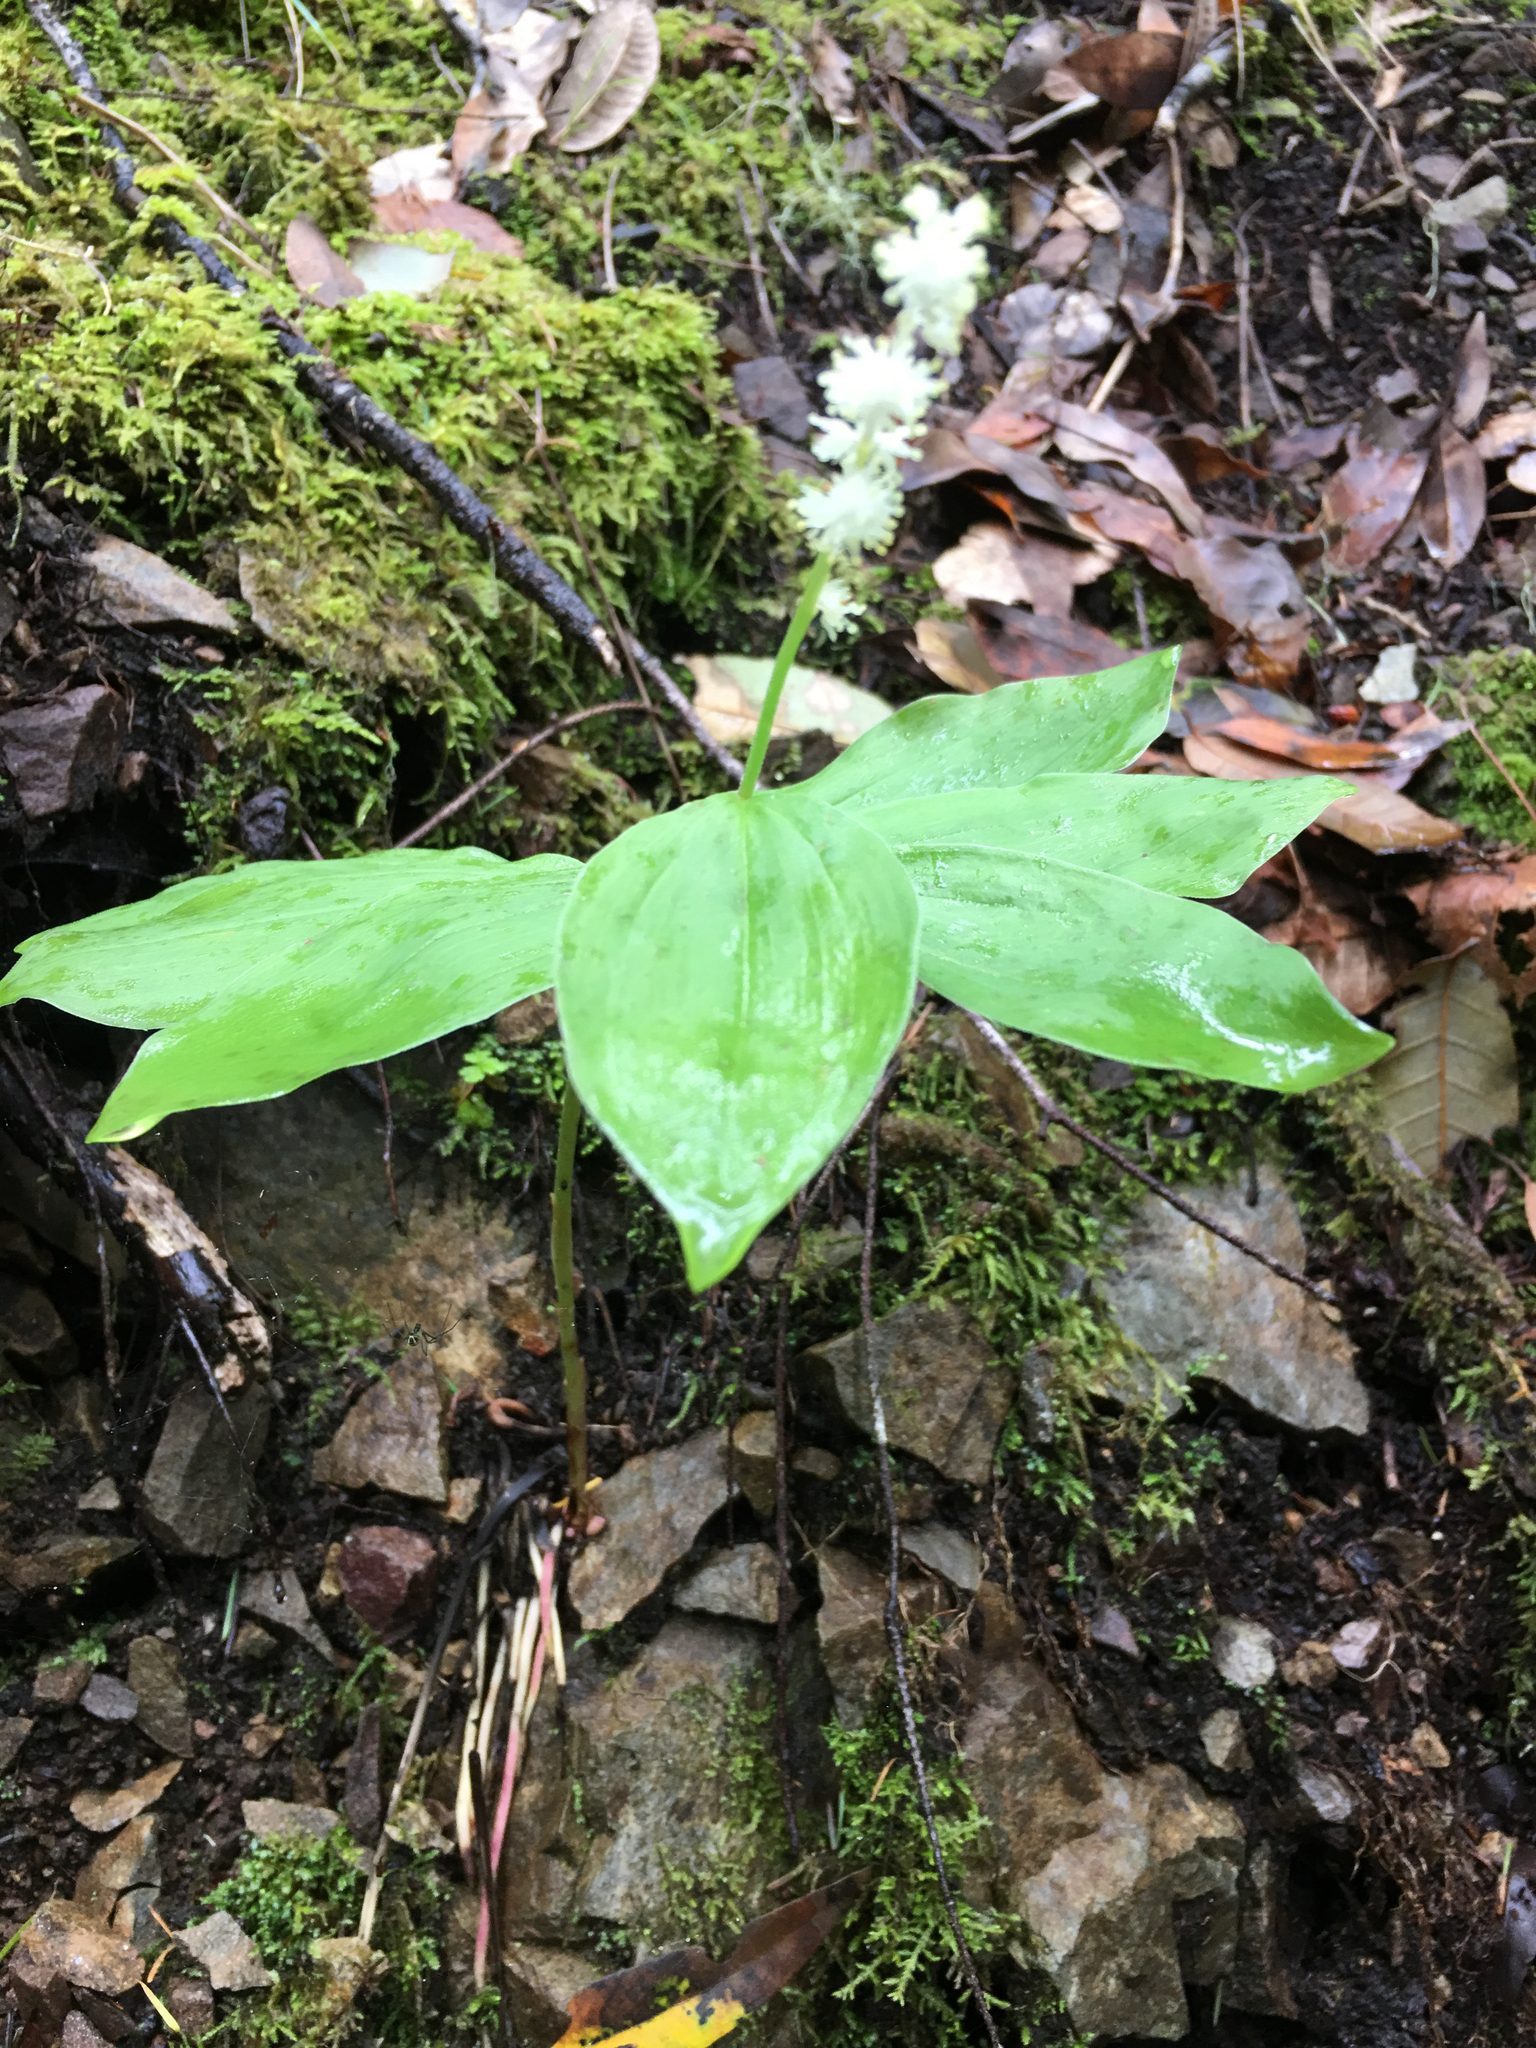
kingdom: Plantae
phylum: Tracheophyta
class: Liliopsida
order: Asparagales
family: Asparagaceae
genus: Maianthemum
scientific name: Maianthemum racemosum
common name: False spikenard
